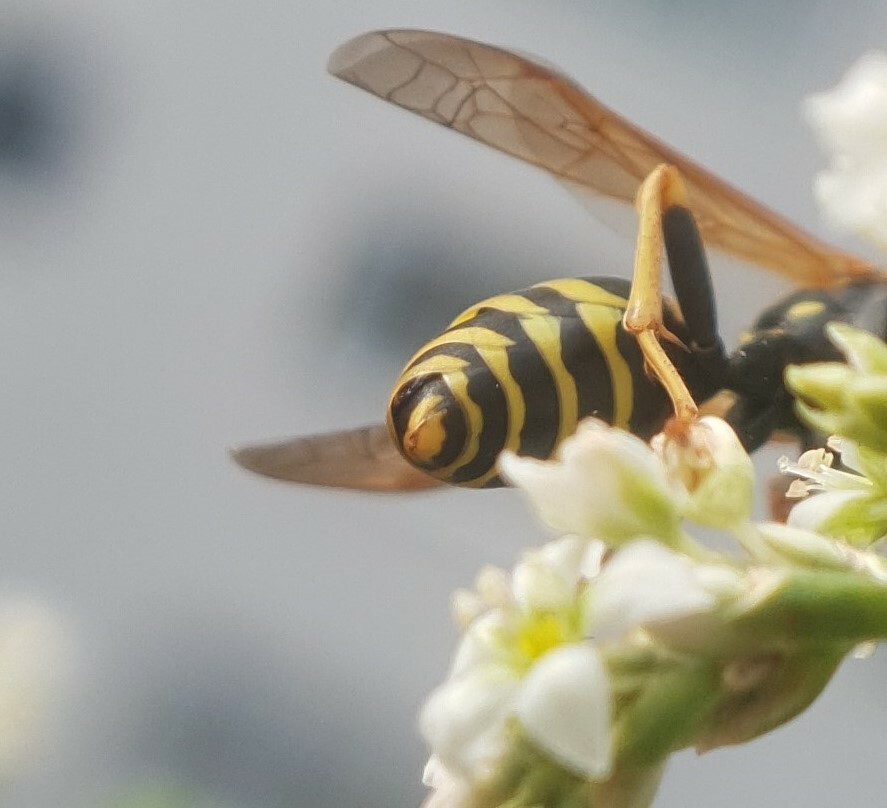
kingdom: Animalia
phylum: Arthropoda
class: Insecta
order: Strepsiptera
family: Xenidae
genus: Xenos
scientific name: Xenos vesparum
